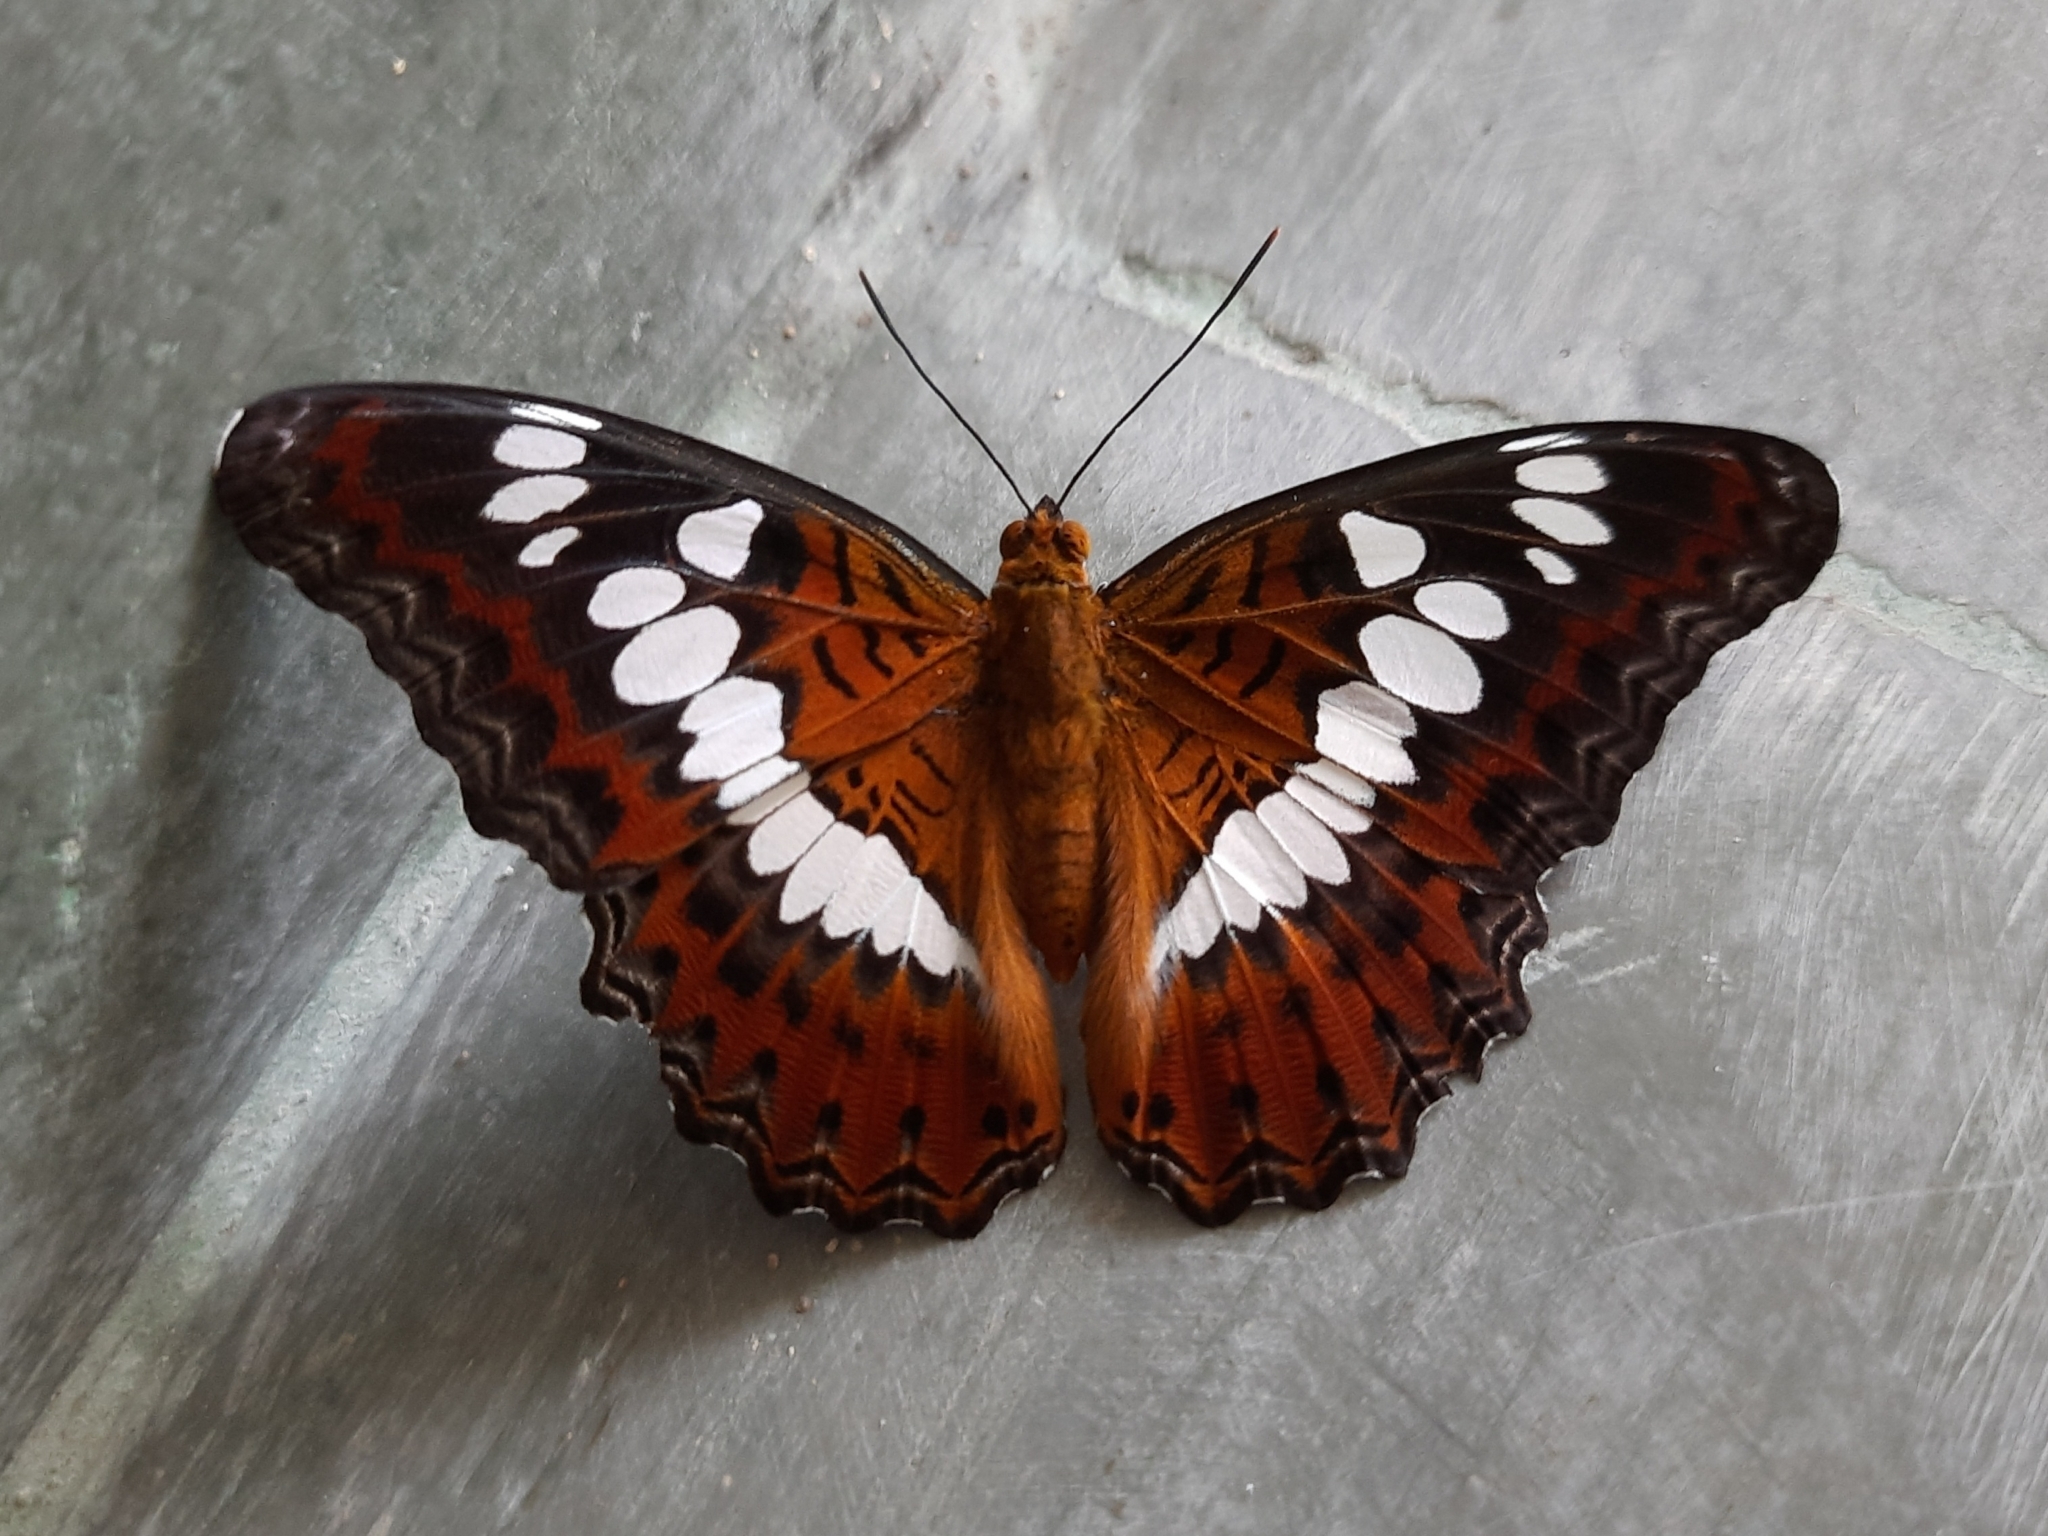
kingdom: Animalia
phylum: Arthropoda
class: Insecta
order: Lepidoptera
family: Nymphalidae
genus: Limenitis
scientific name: Limenitis Moduza procris
